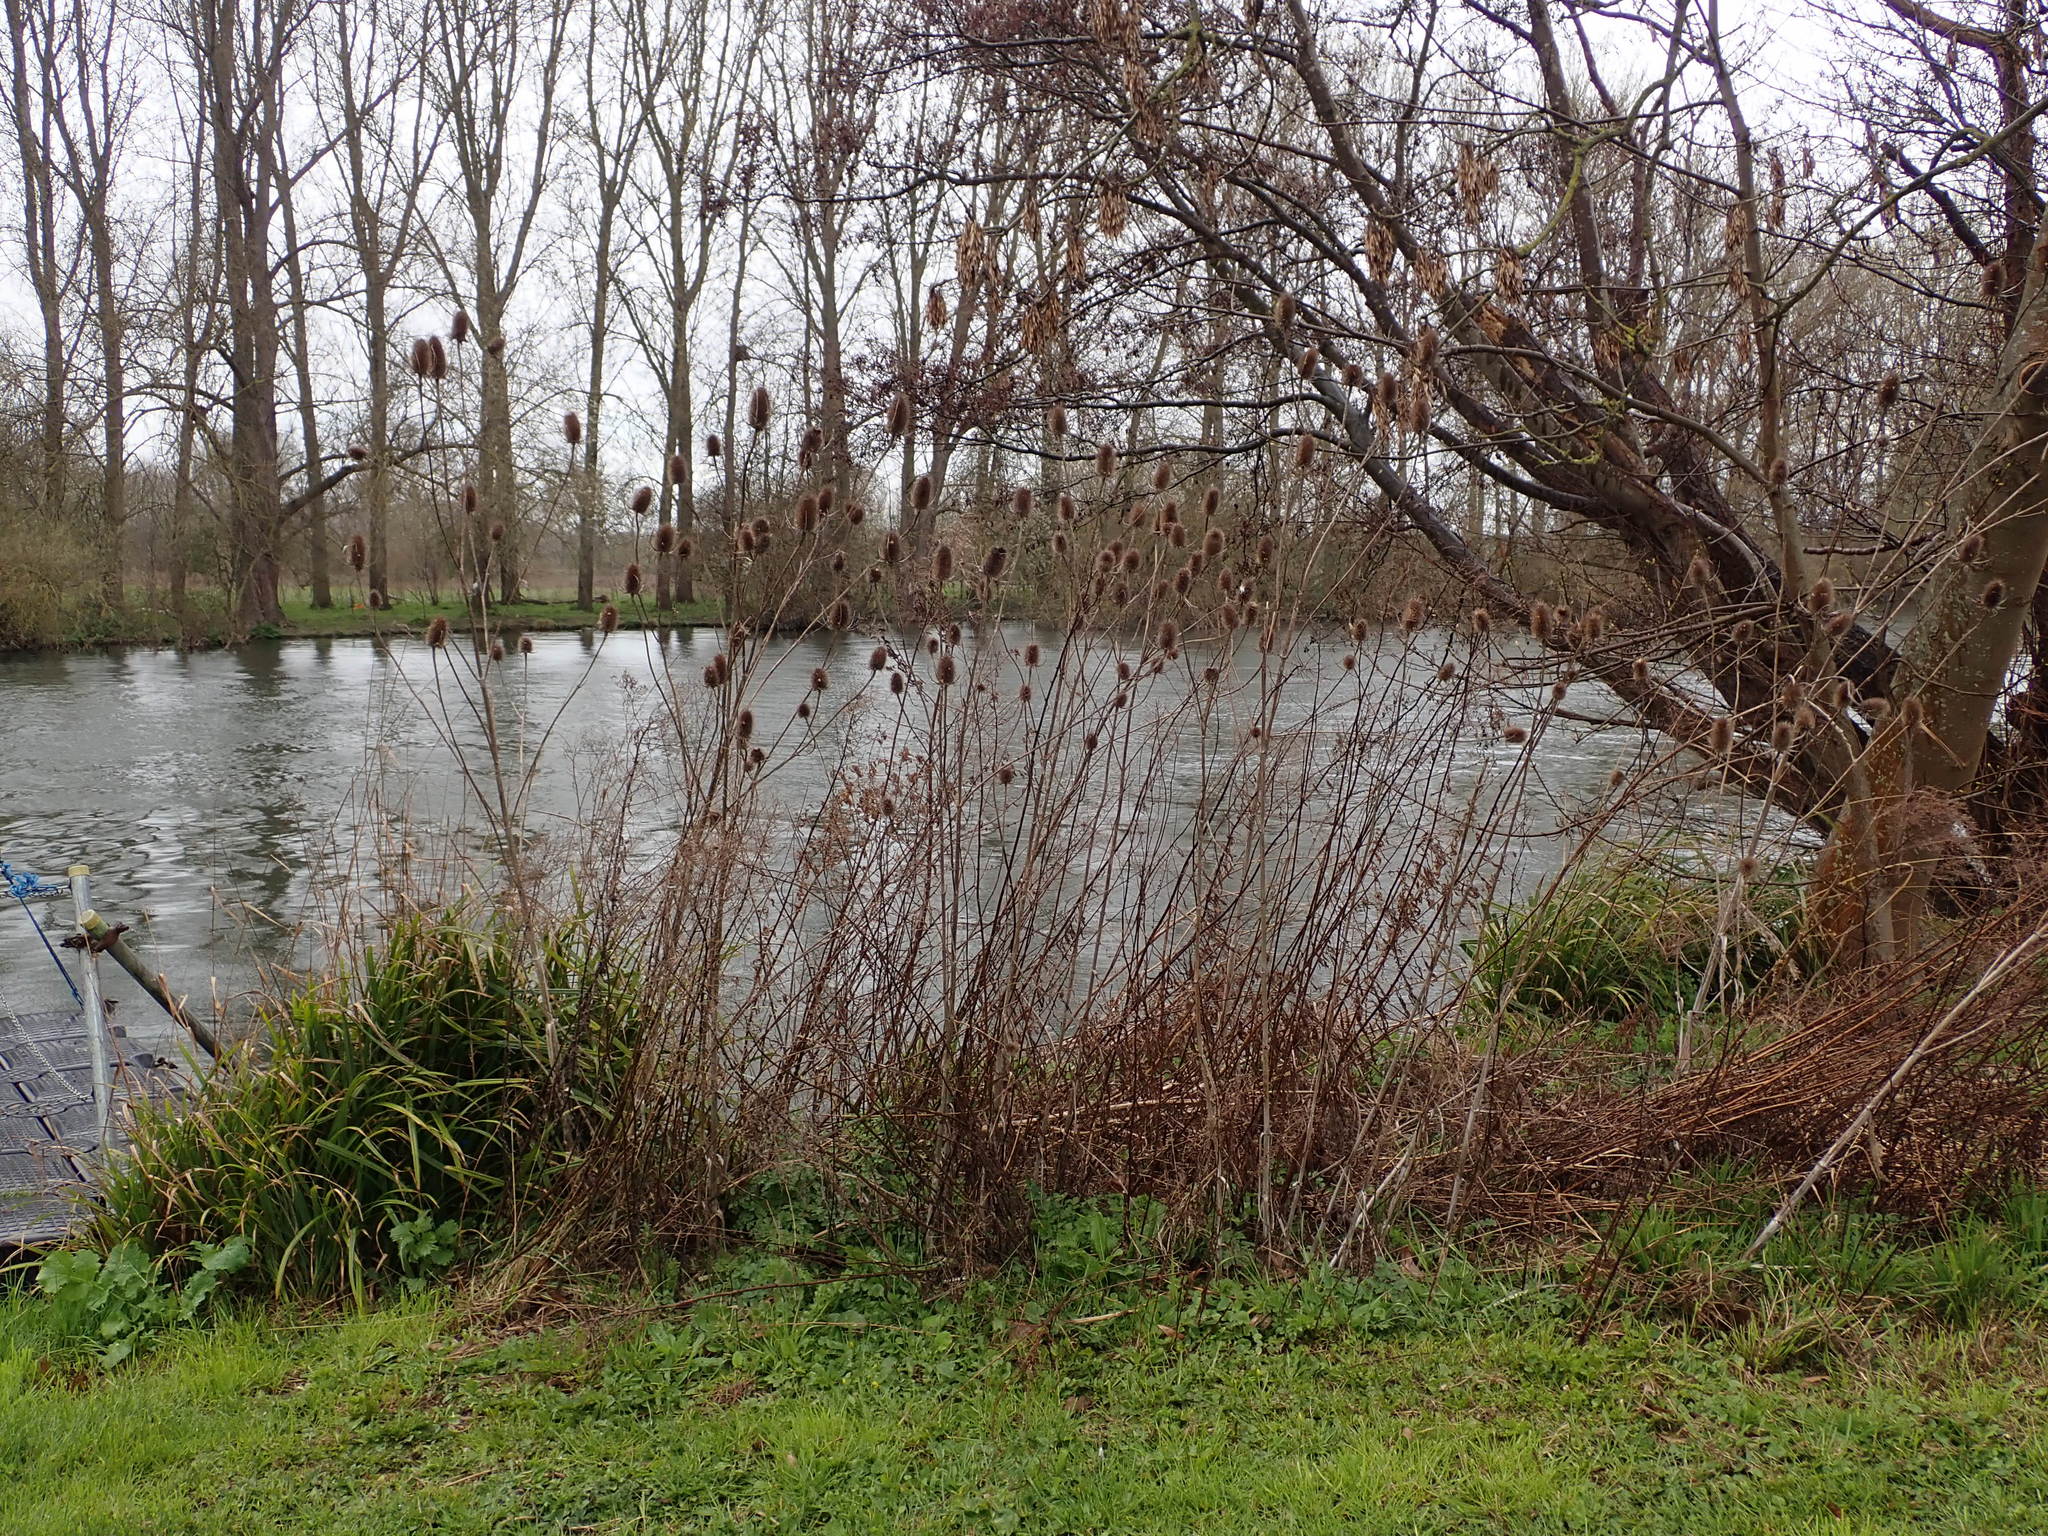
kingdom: Plantae
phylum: Tracheophyta
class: Magnoliopsida
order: Dipsacales
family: Caprifoliaceae
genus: Dipsacus
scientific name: Dipsacus fullonum
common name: Teasel
